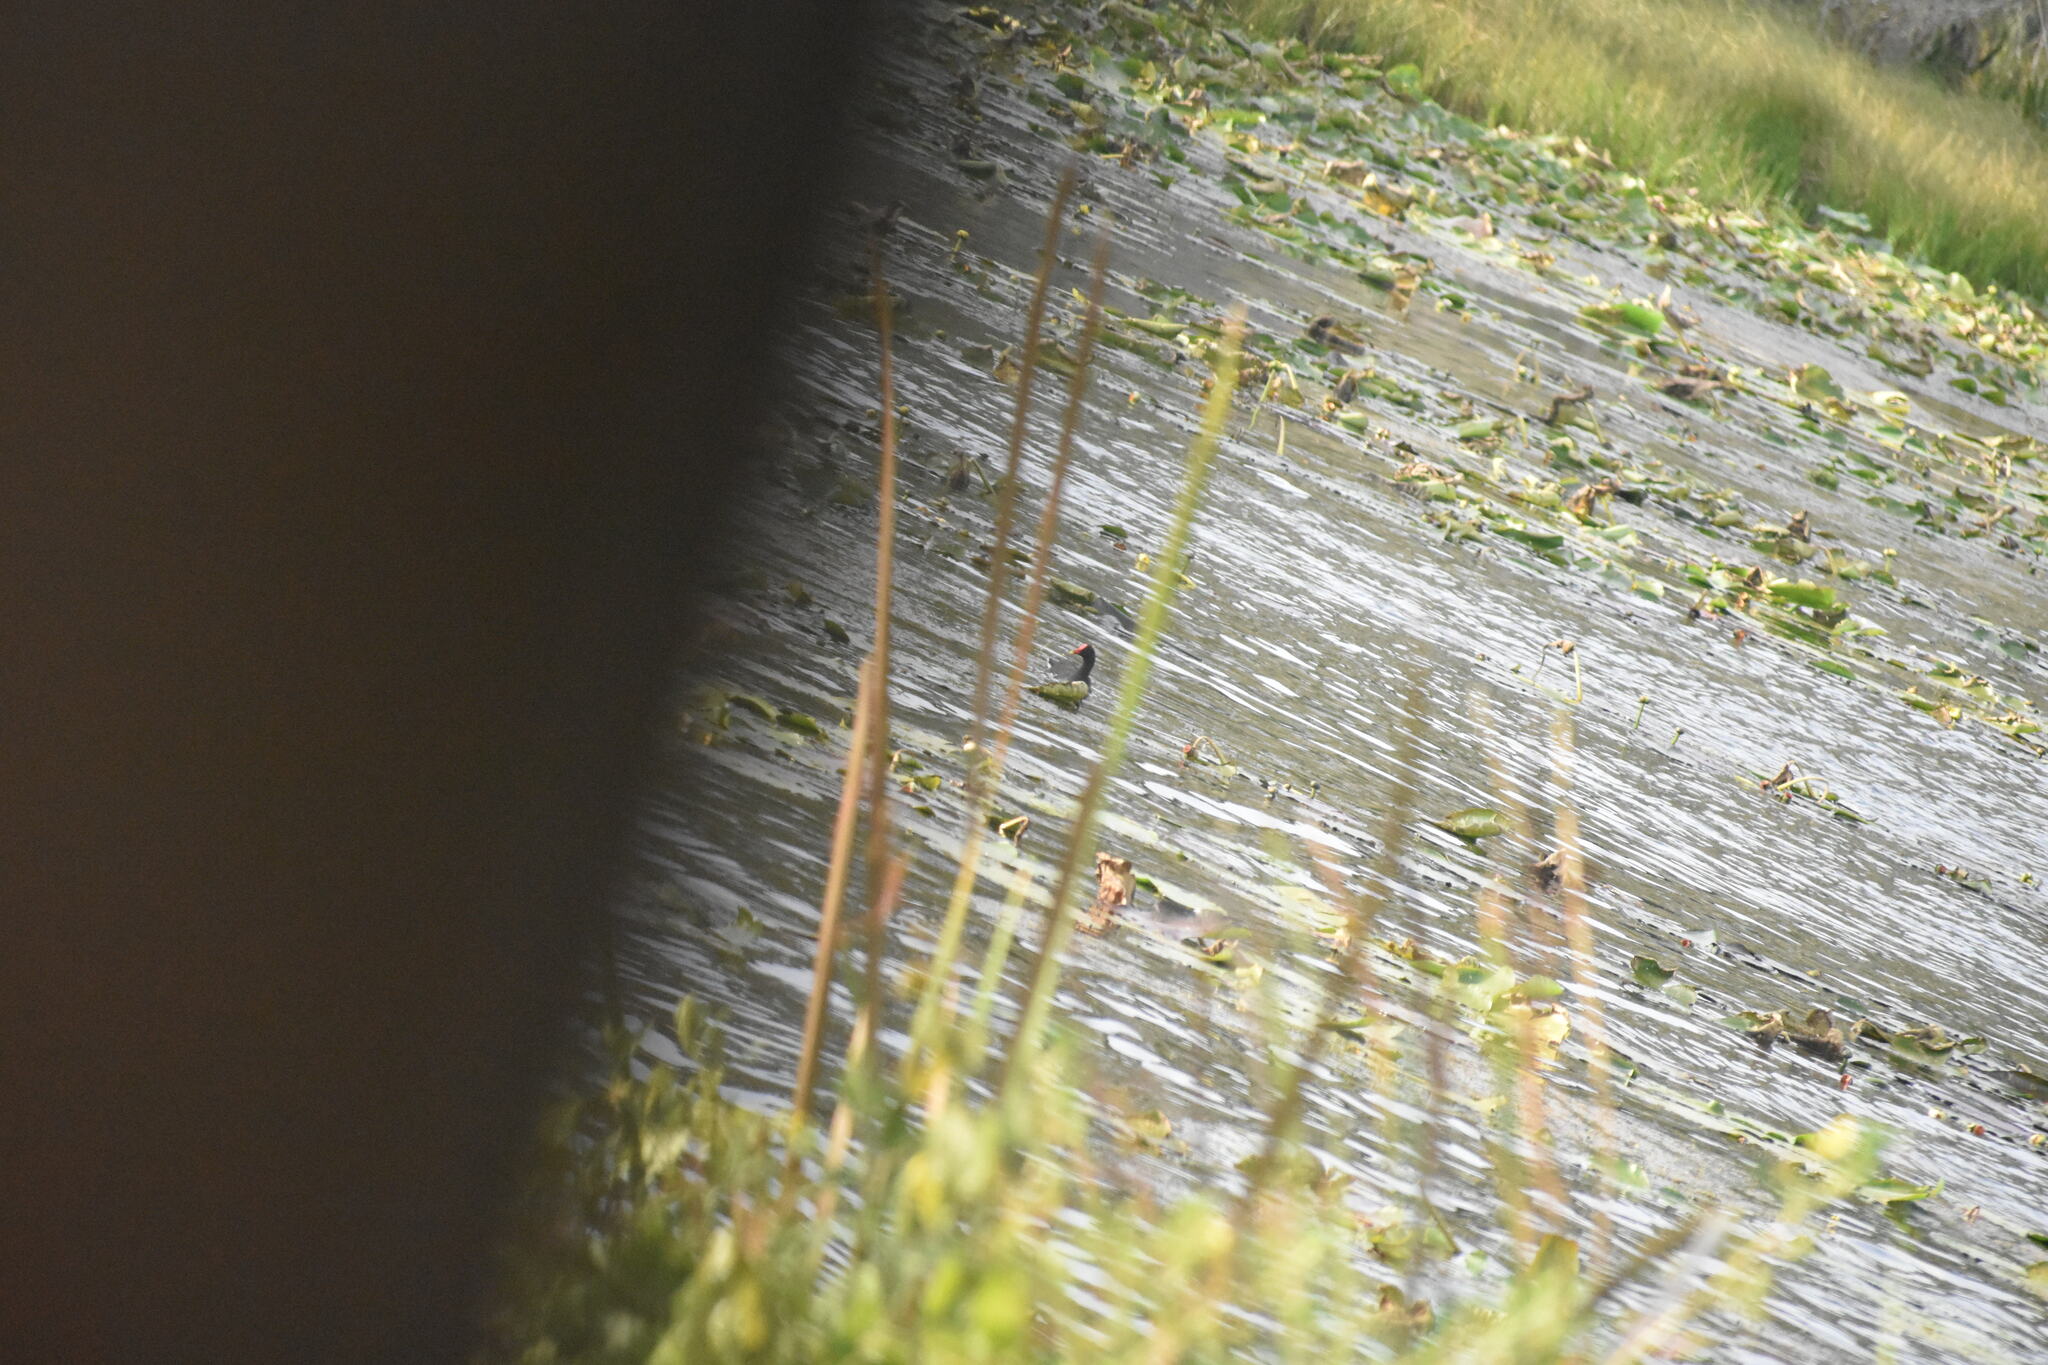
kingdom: Animalia
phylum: Chordata
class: Aves
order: Gruiformes
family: Rallidae
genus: Gallinula
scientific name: Gallinula chloropus
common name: Common moorhen
